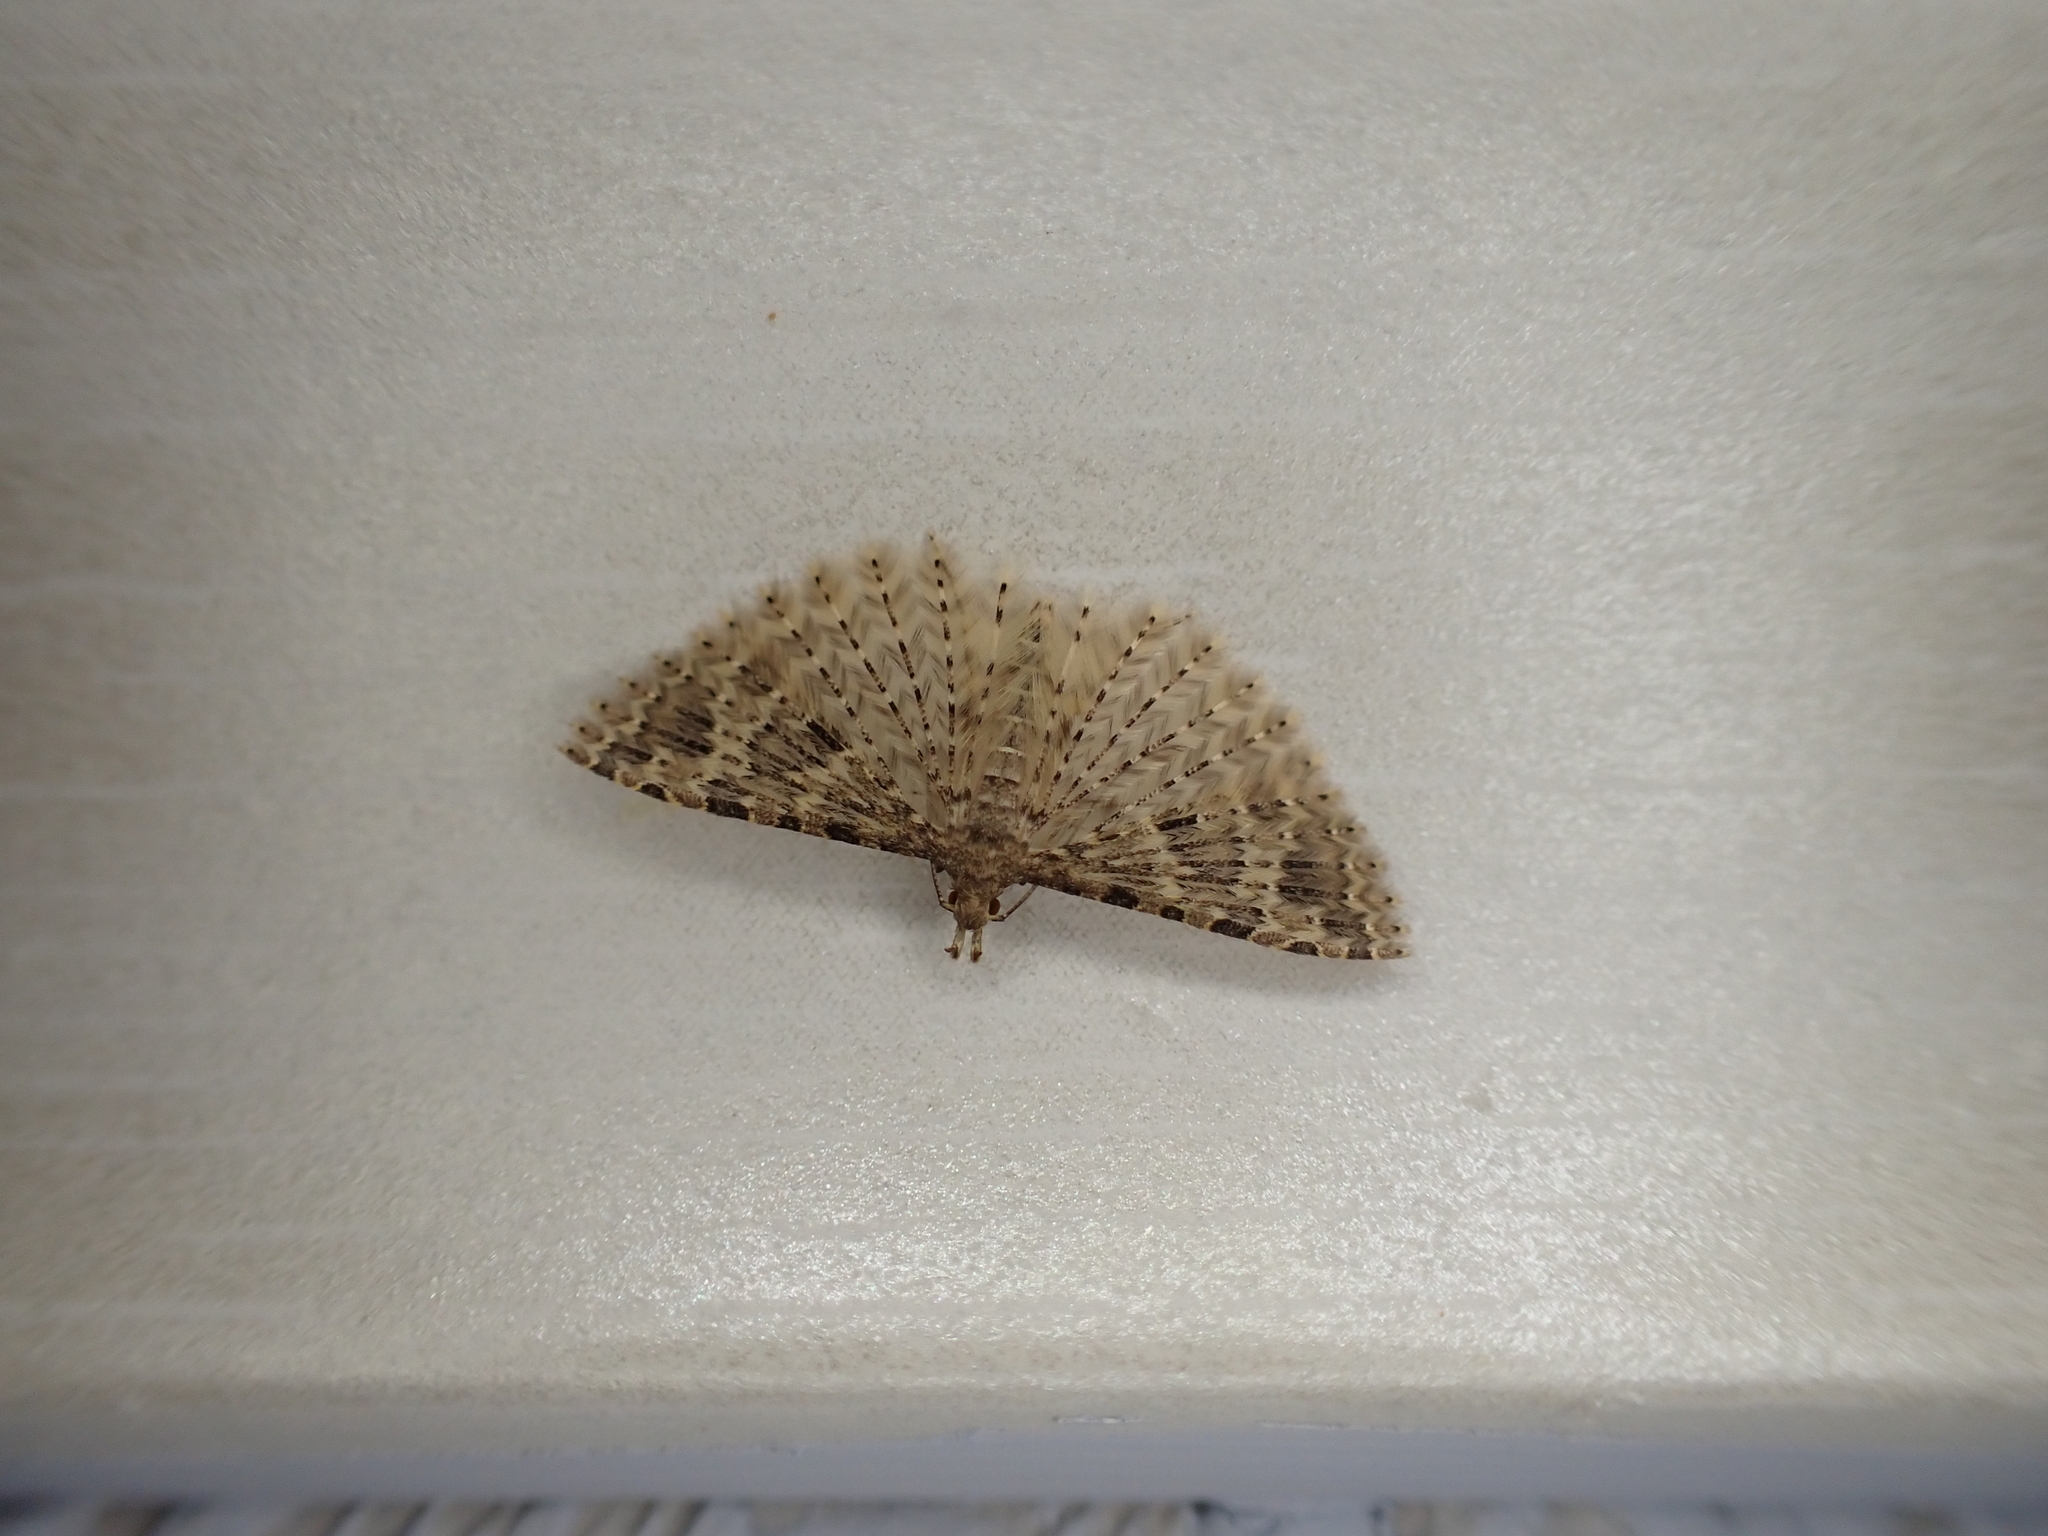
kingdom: Animalia
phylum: Arthropoda
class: Insecta
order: Lepidoptera
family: Alucitidae
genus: Alucita
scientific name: Alucita hexadactyla
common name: Twenty-plume moth
